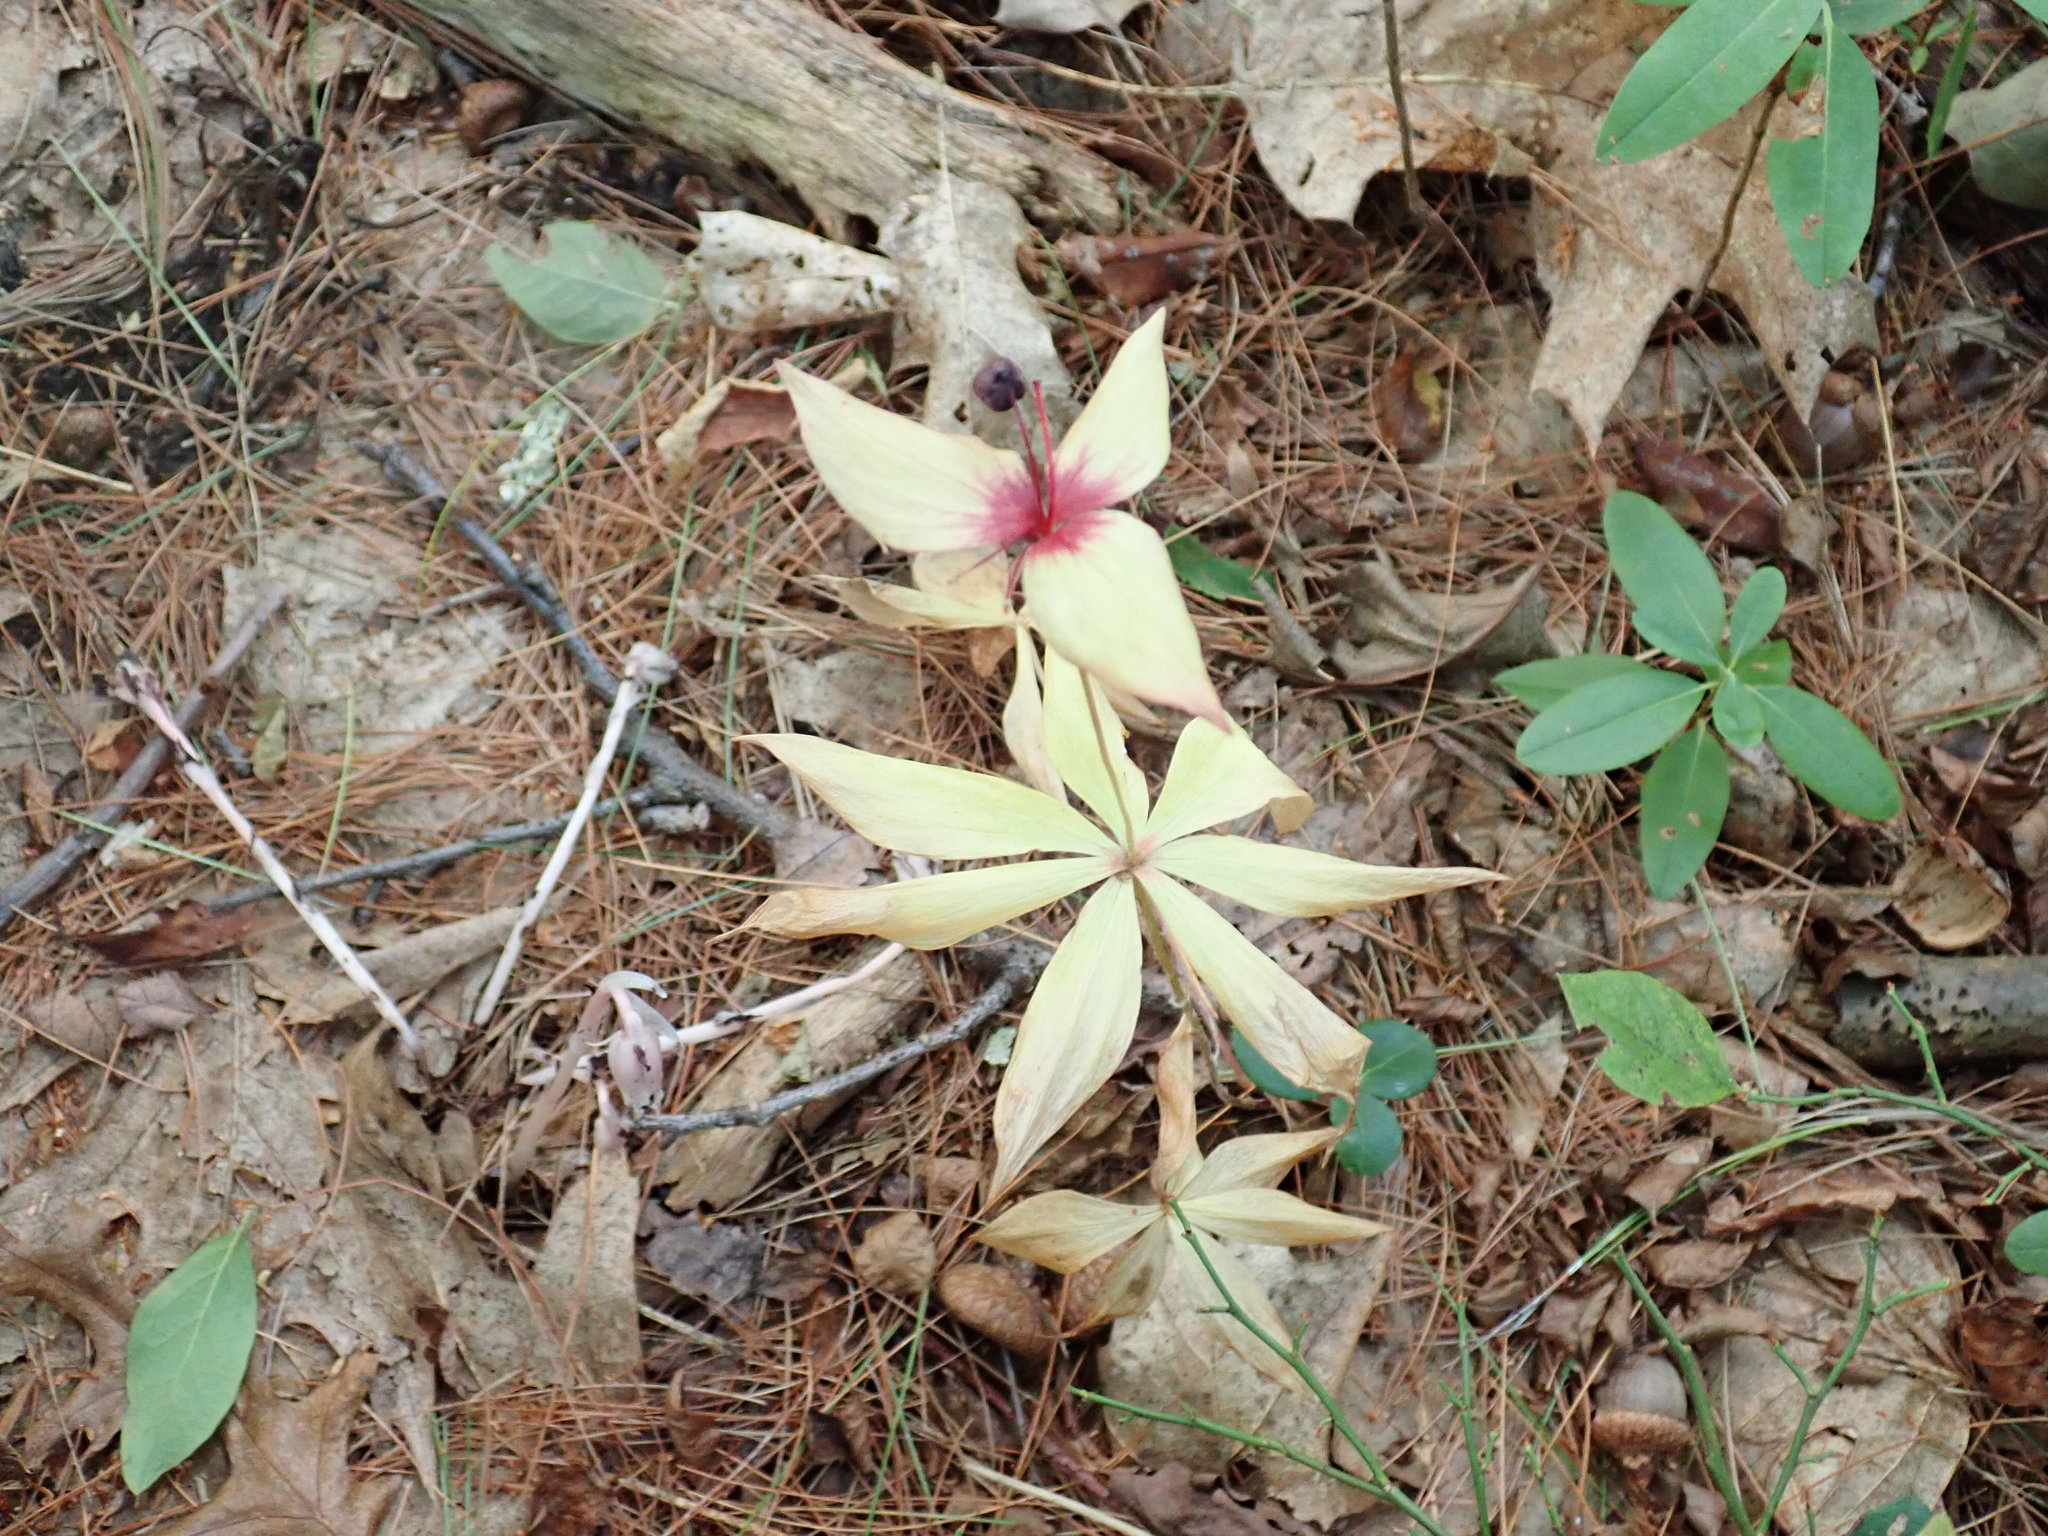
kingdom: Plantae
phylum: Tracheophyta
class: Liliopsida
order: Liliales
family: Liliaceae
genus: Medeola
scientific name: Medeola virginiana
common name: Indian cucumber-root
